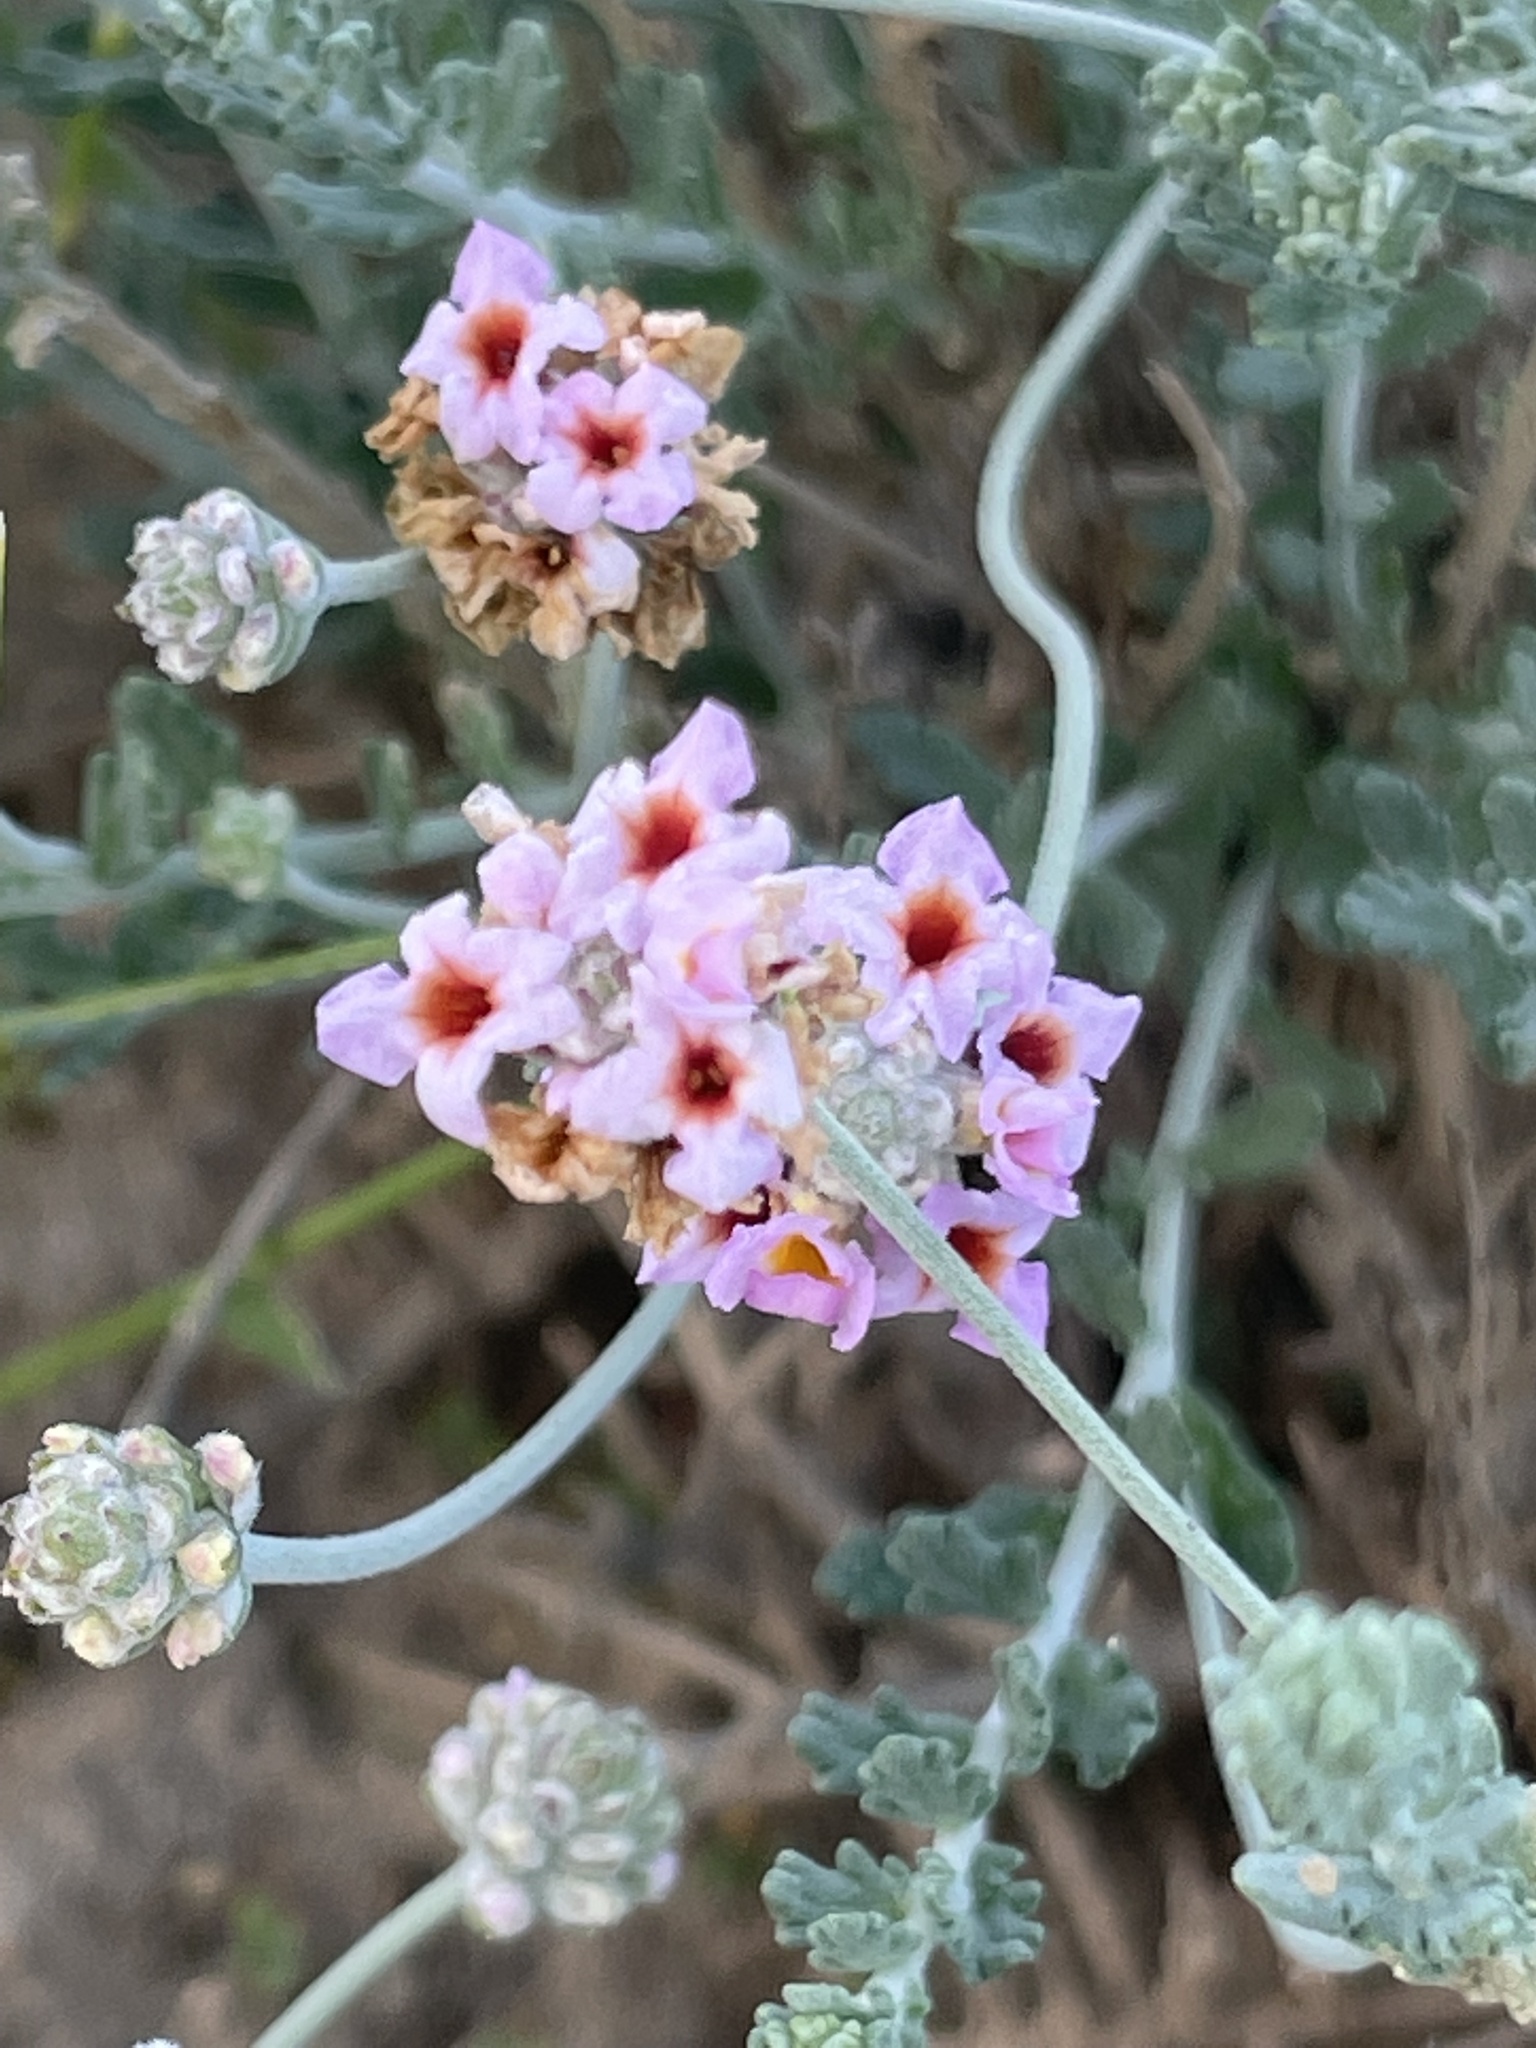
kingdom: Plantae
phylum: Tracheophyta
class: Magnoliopsida
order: Lamiales
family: Verbenaceae
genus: Lippia
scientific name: Lippia fastigiata
